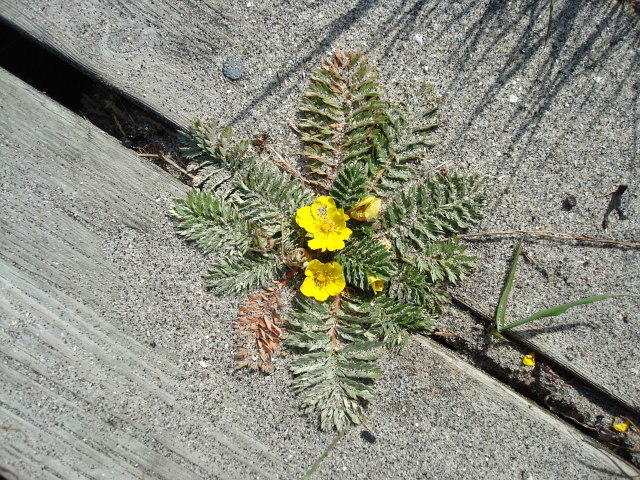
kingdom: Plantae
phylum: Tracheophyta
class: Magnoliopsida
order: Rosales
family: Rosaceae
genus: Argentina
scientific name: Argentina anserina
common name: Common silverweed
